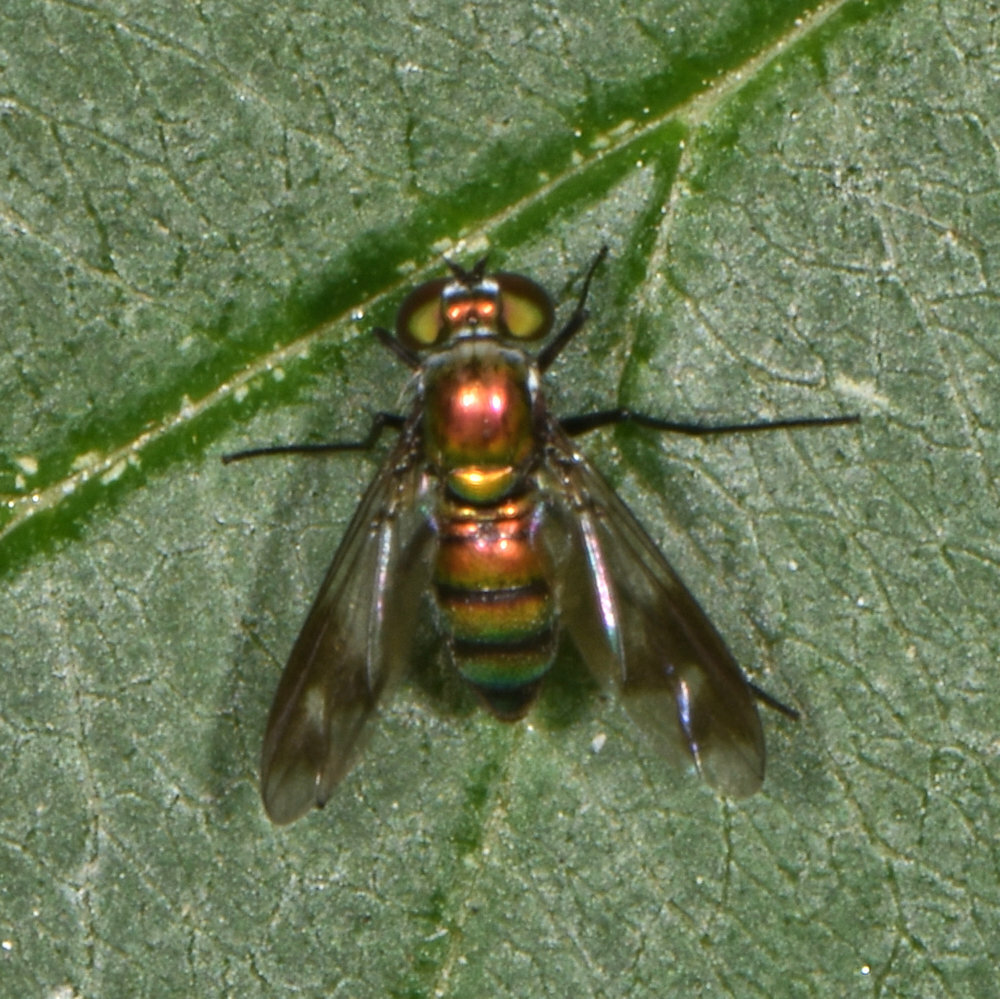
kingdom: Animalia
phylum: Arthropoda
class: Insecta
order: Diptera
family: Dolichopodidae
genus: Condylostylus
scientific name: Condylostylus patibulatus
